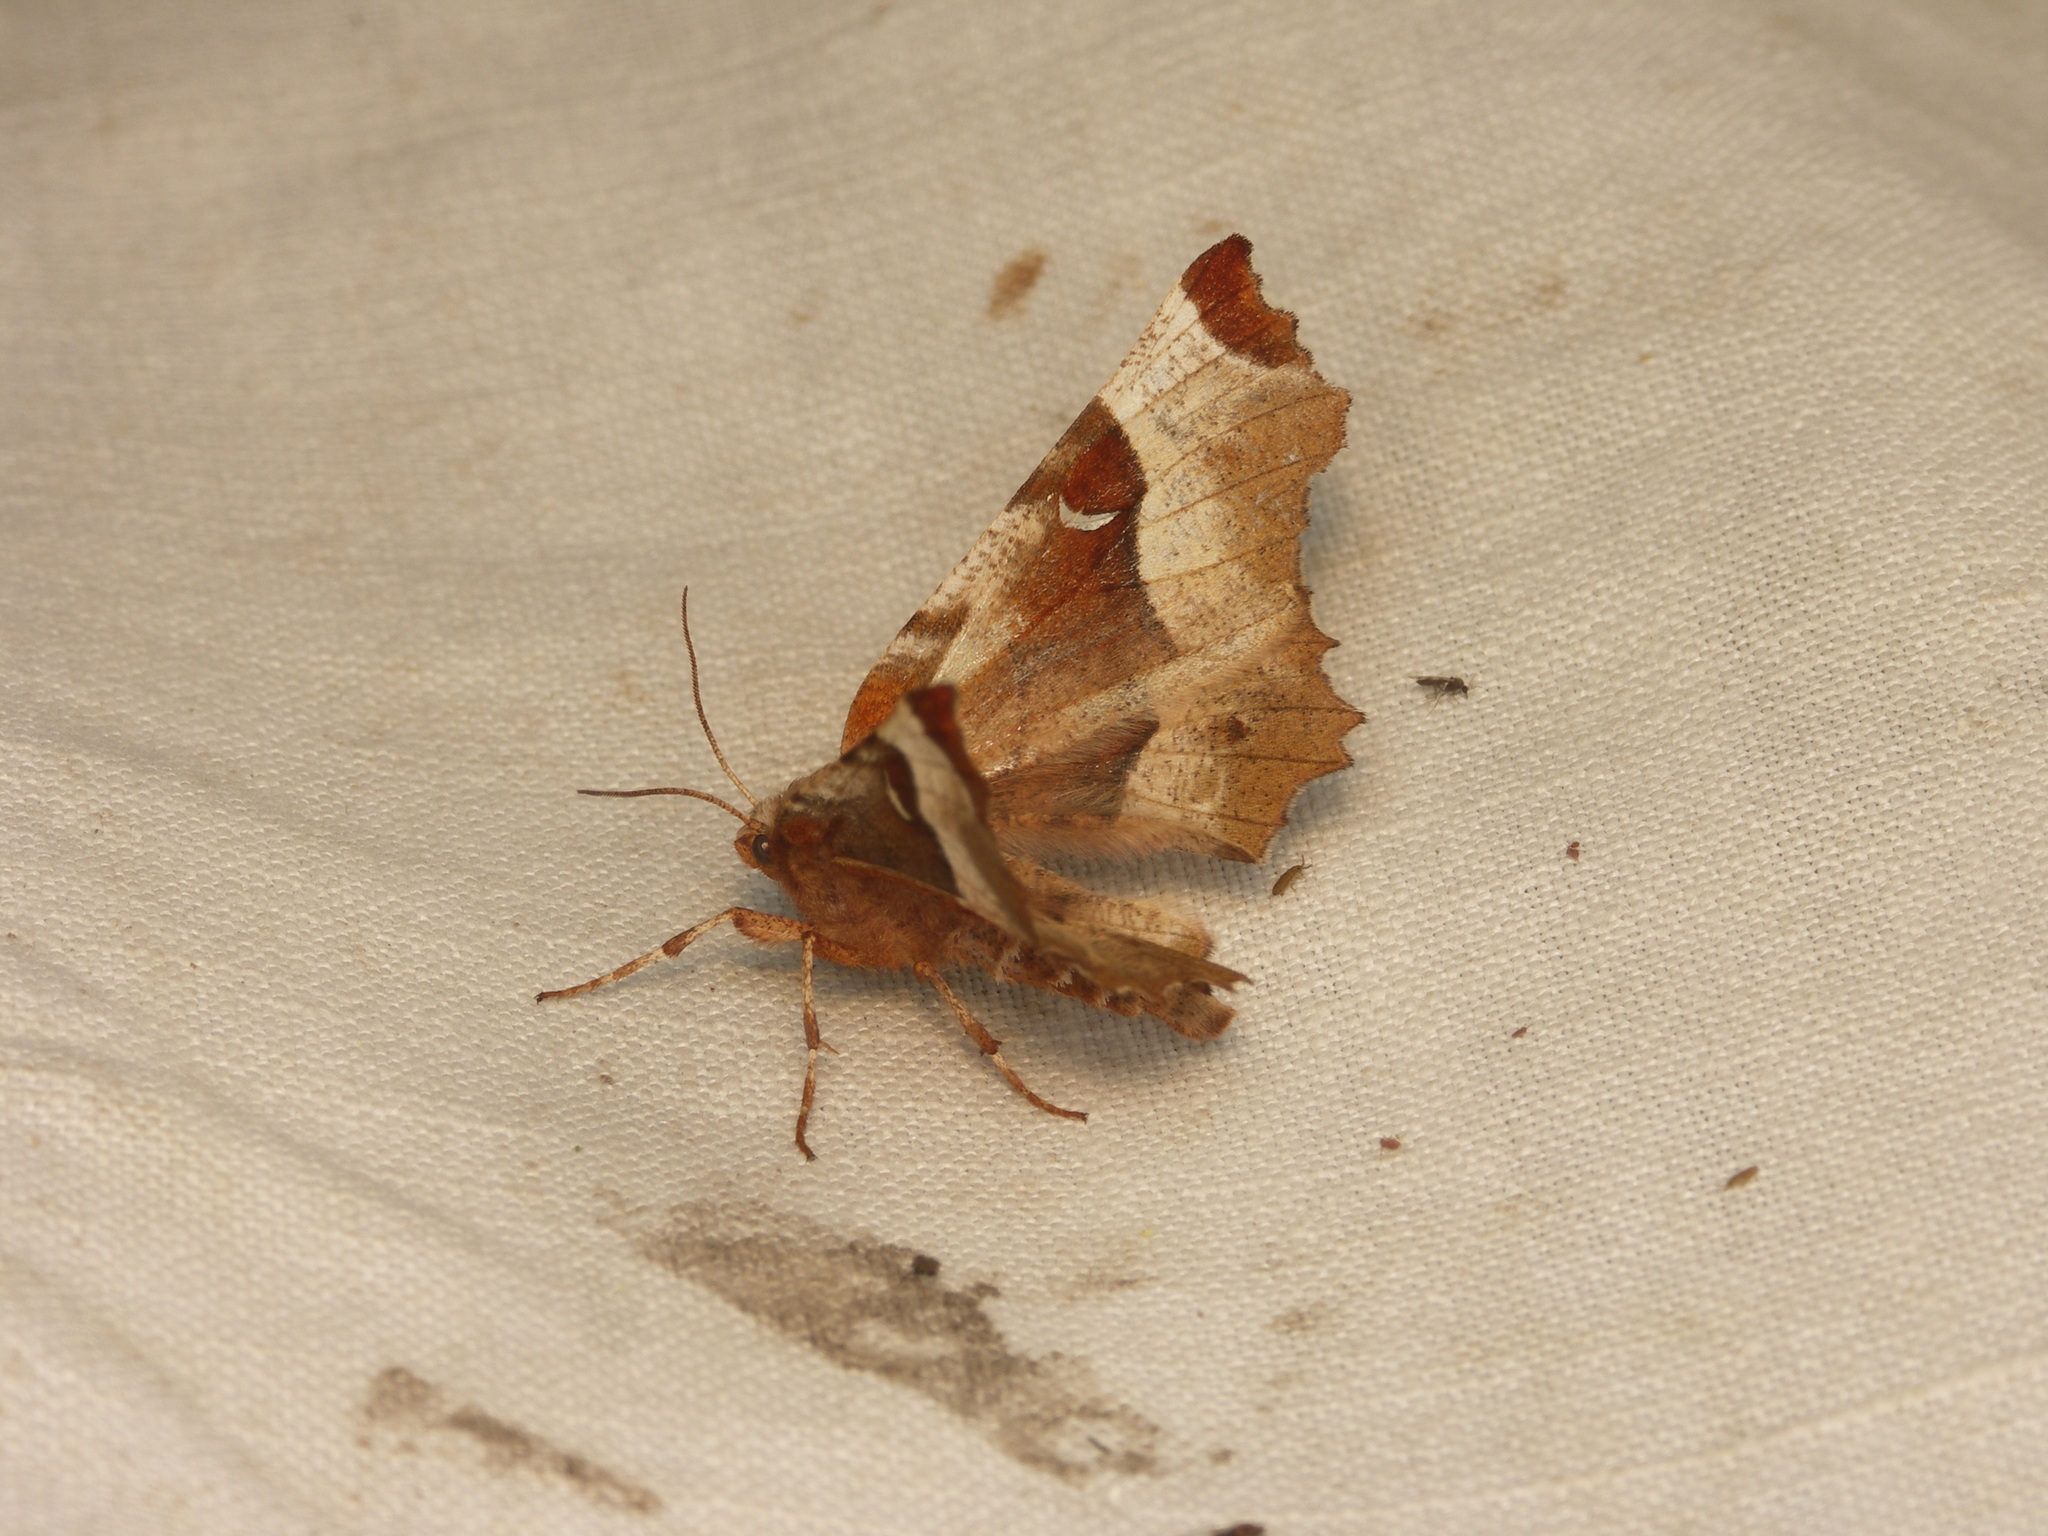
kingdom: Animalia
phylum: Arthropoda
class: Insecta
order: Lepidoptera
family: Geometridae
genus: Selenia
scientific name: Selenia tetralunaria
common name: Purple thorn
